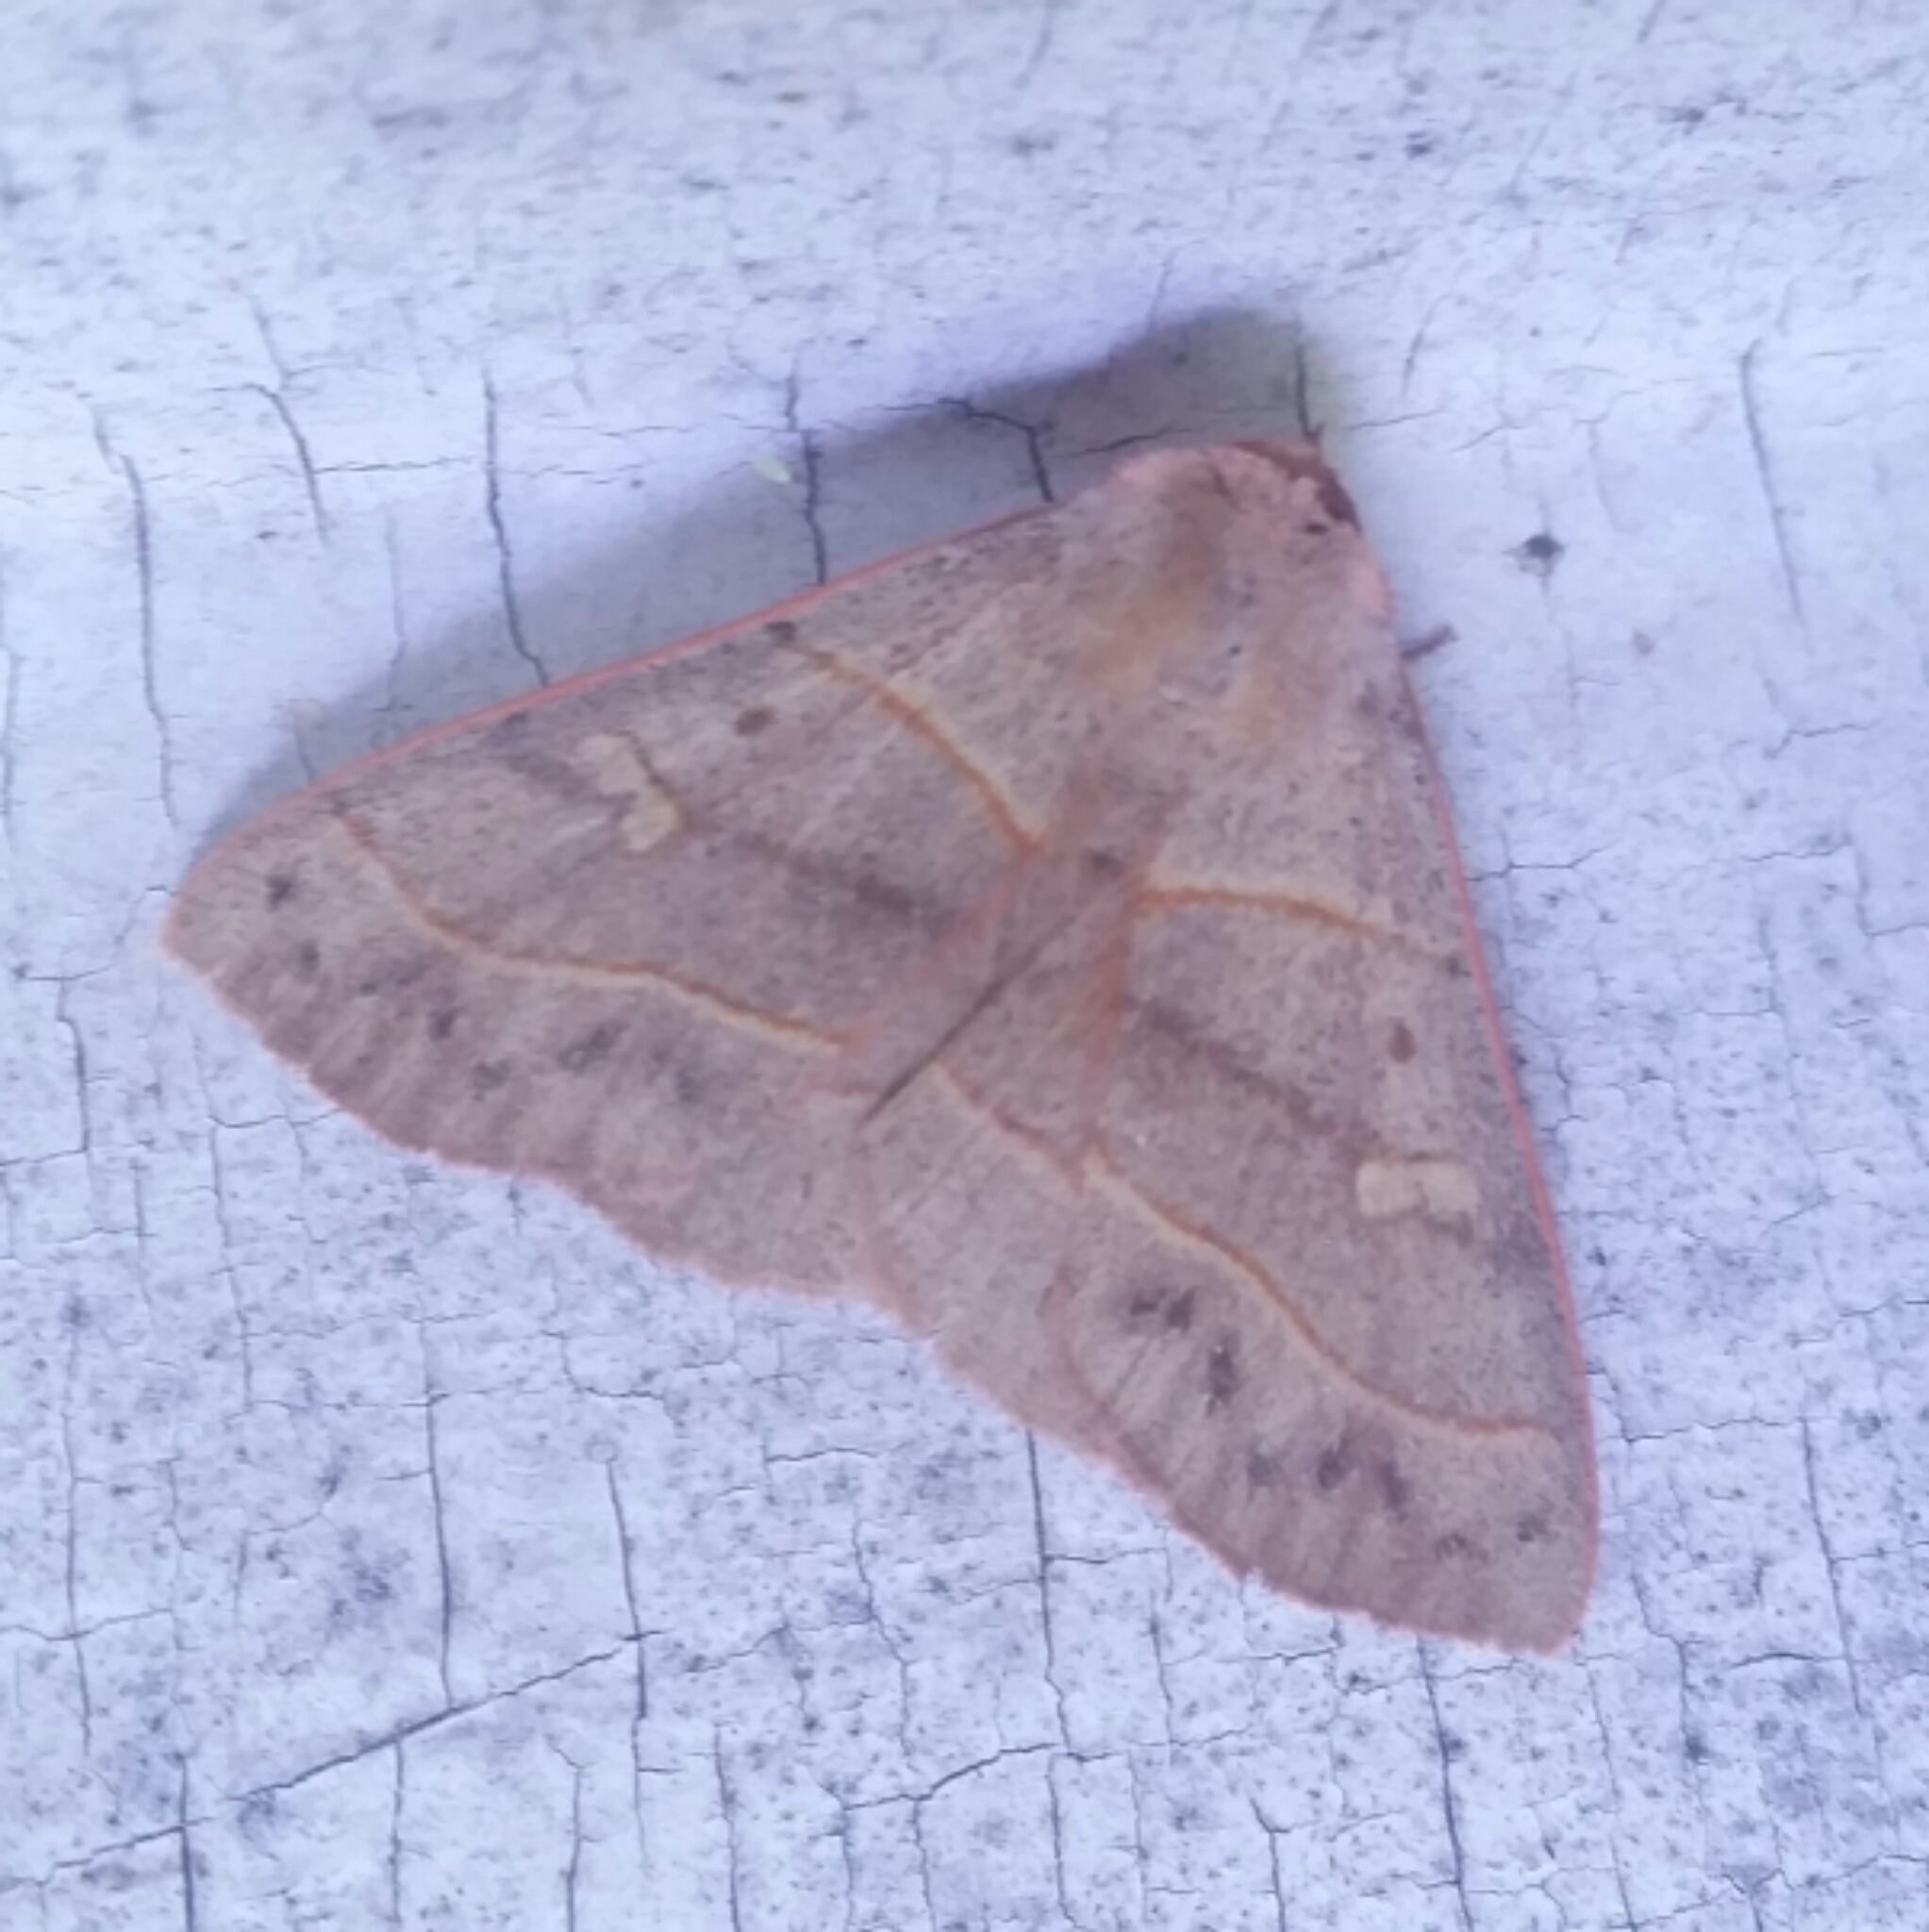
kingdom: Animalia
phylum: Arthropoda
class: Insecta
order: Lepidoptera
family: Erebidae
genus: Panopoda
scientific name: Panopoda rufimargo
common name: Red-lined panopoda moth
